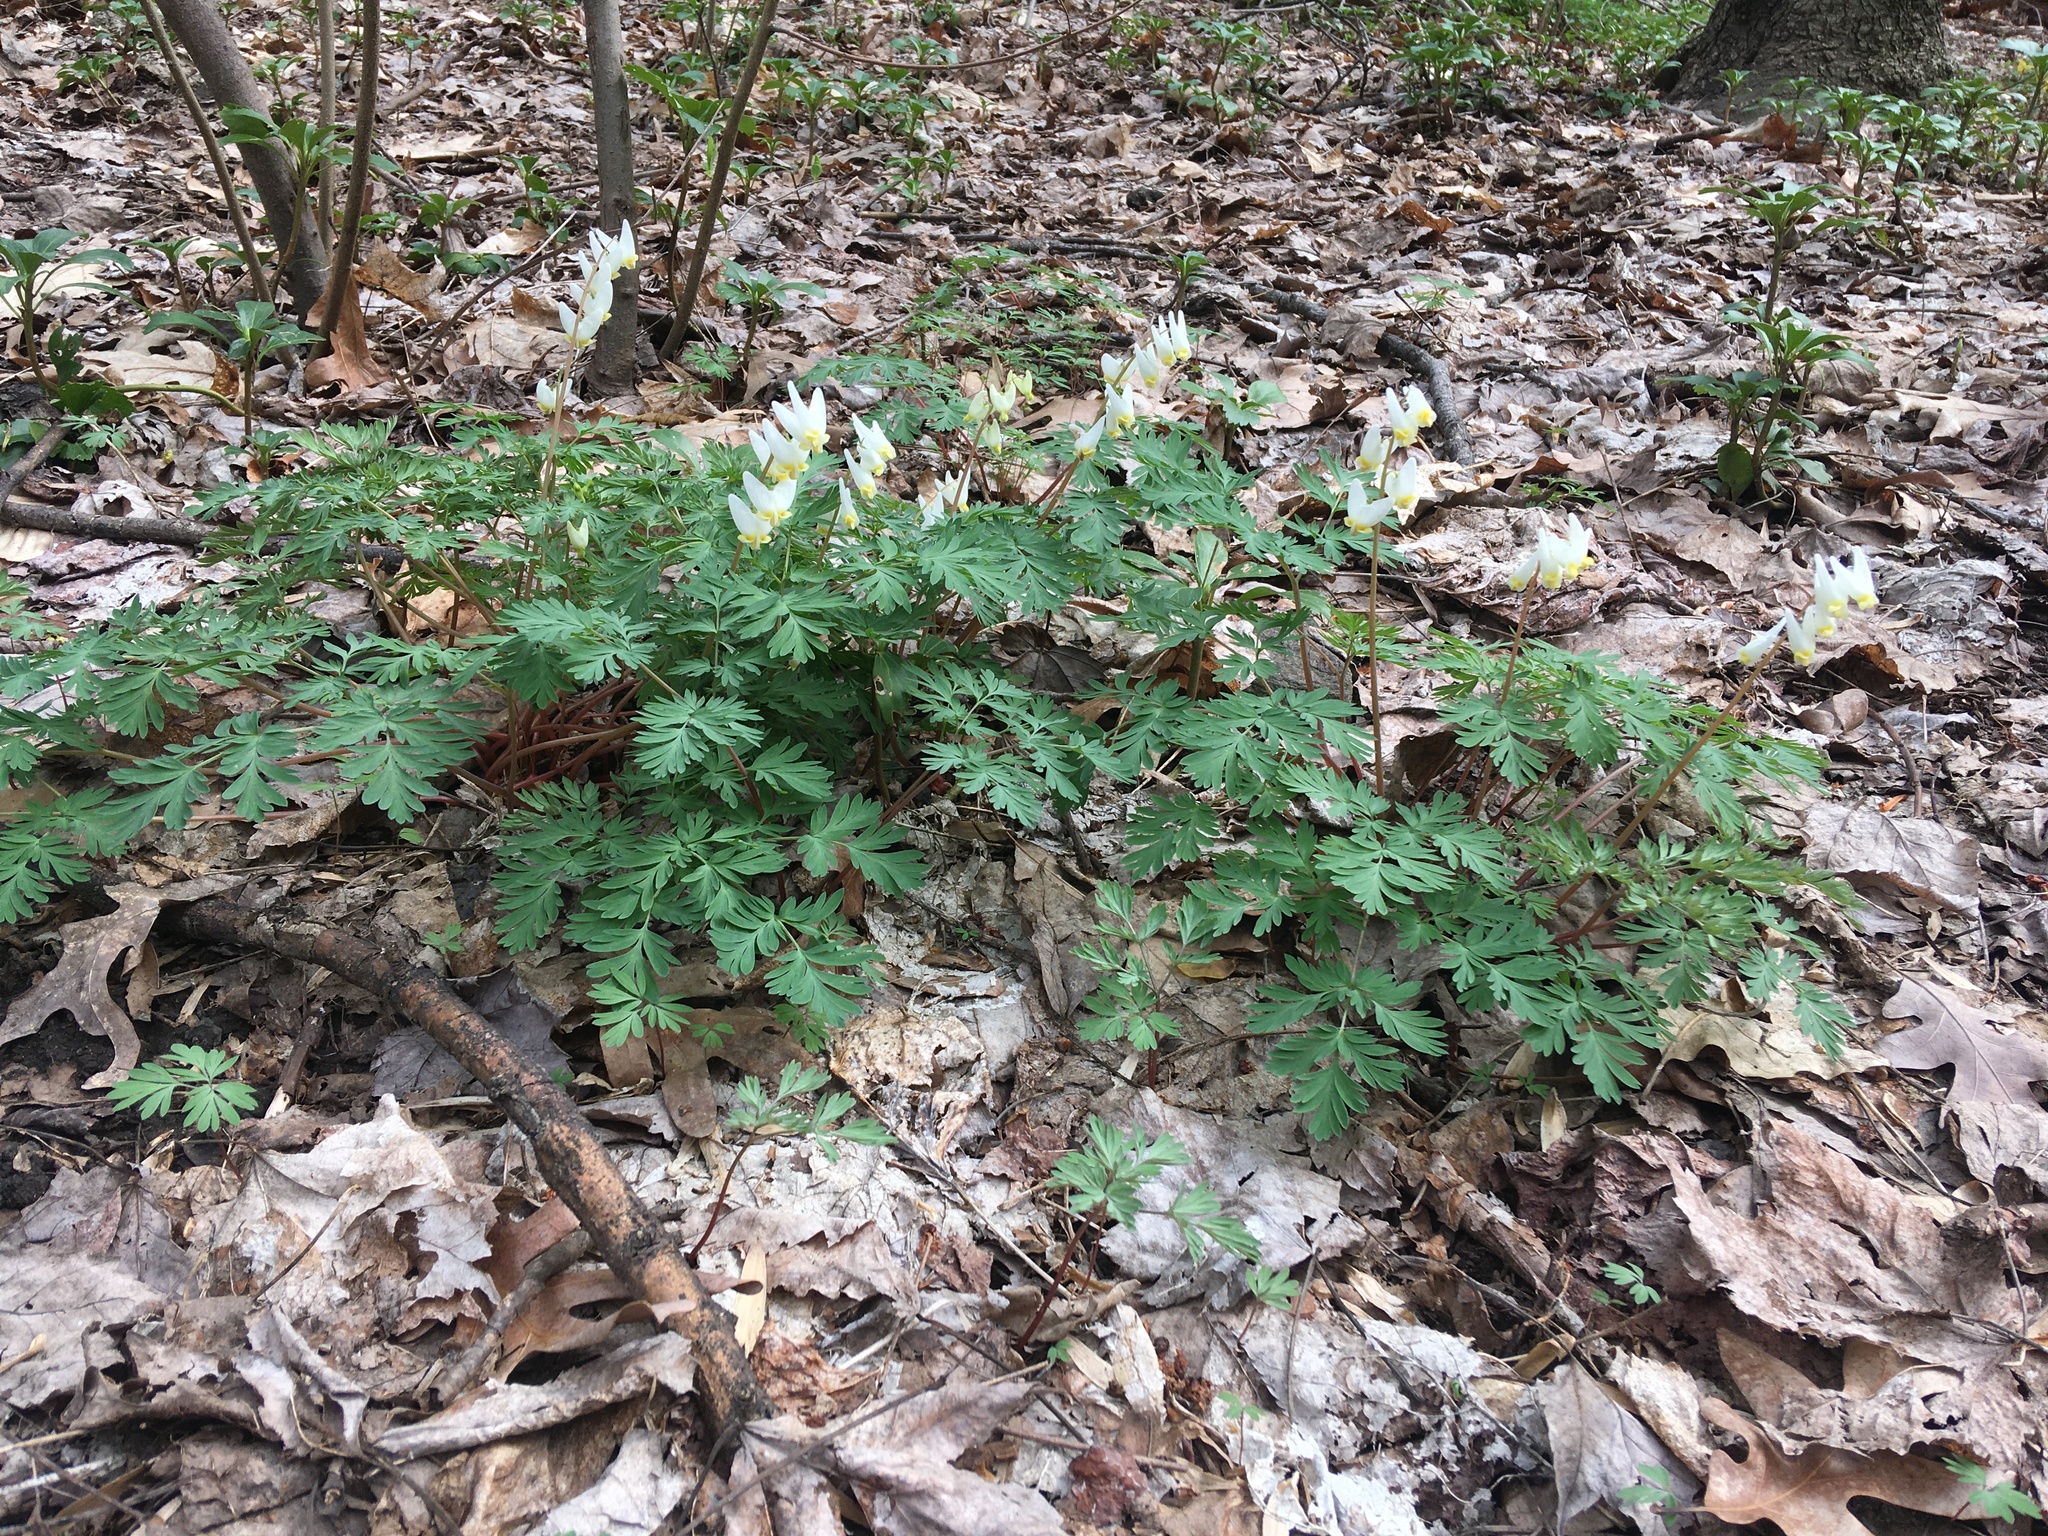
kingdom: Plantae
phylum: Tracheophyta
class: Magnoliopsida
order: Ranunculales
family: Papaveraceae
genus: Dicentra
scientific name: Dicentra cucullaria
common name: Dutchman's breeches
